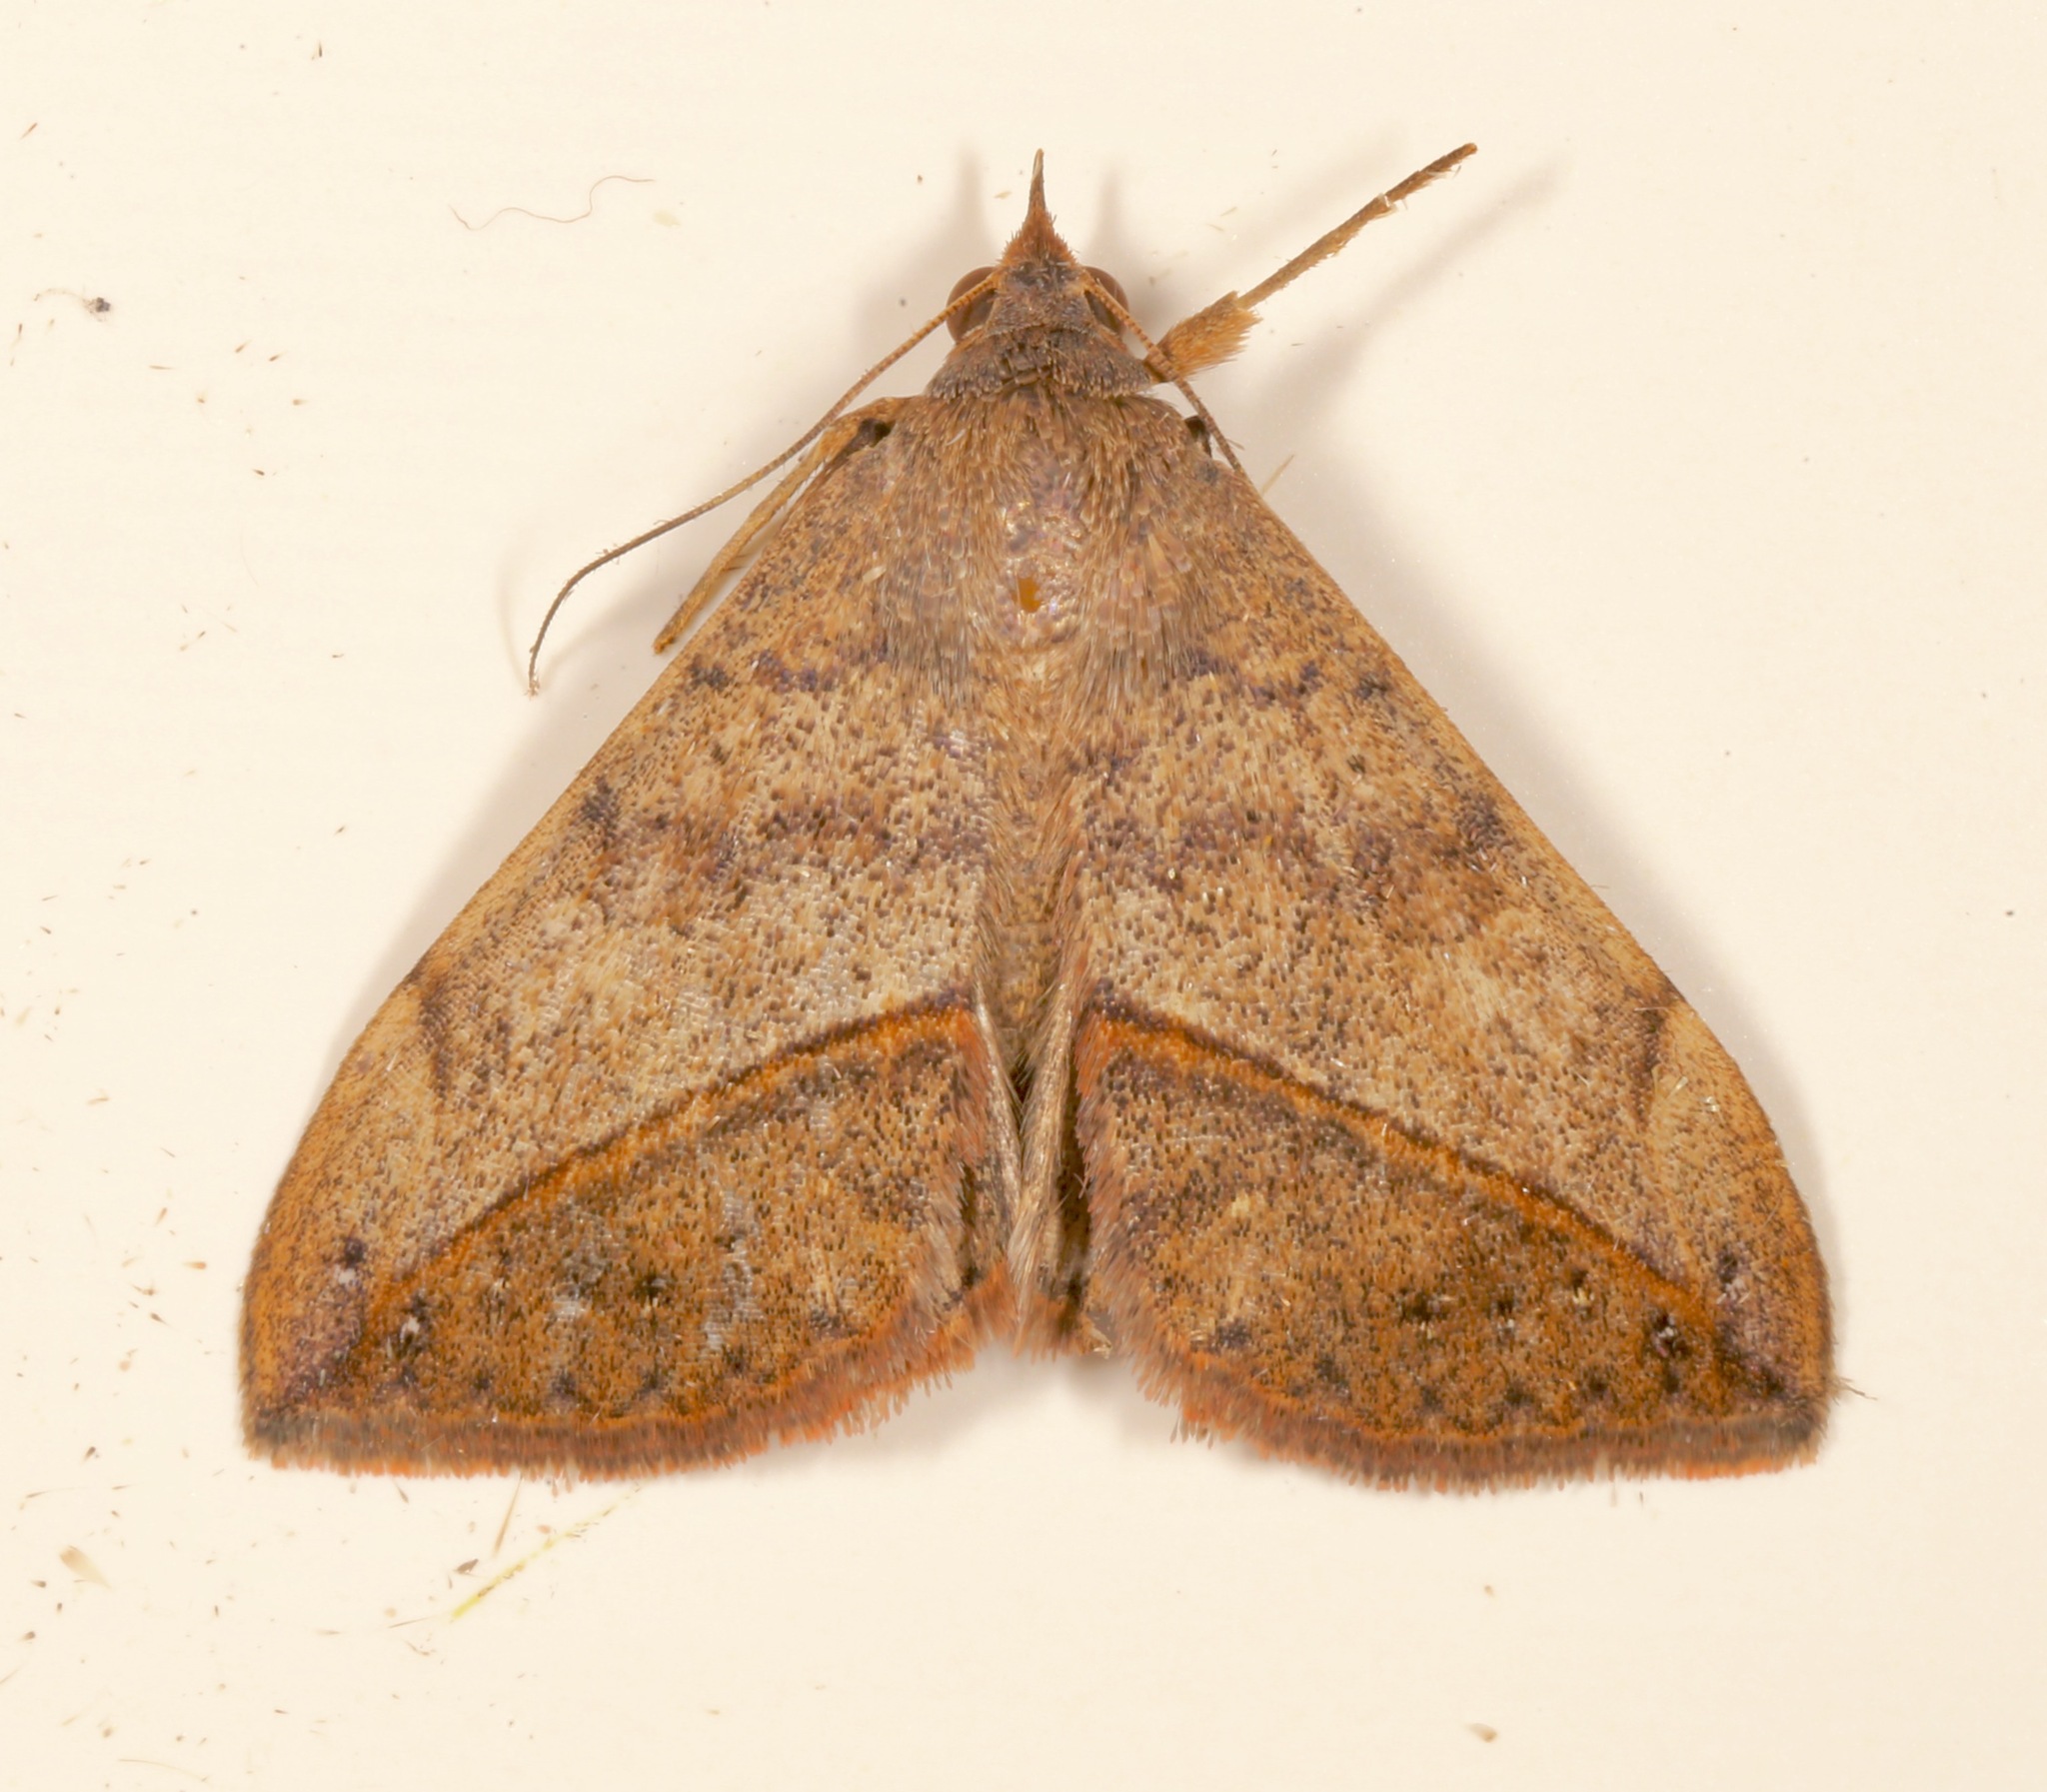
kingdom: Animalia
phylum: Arthropoda
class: Insecta
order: Lepidoptera
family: Erebidae
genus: Anticarsia
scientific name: Anticarsia gemmatalis
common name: Cutworm moth
